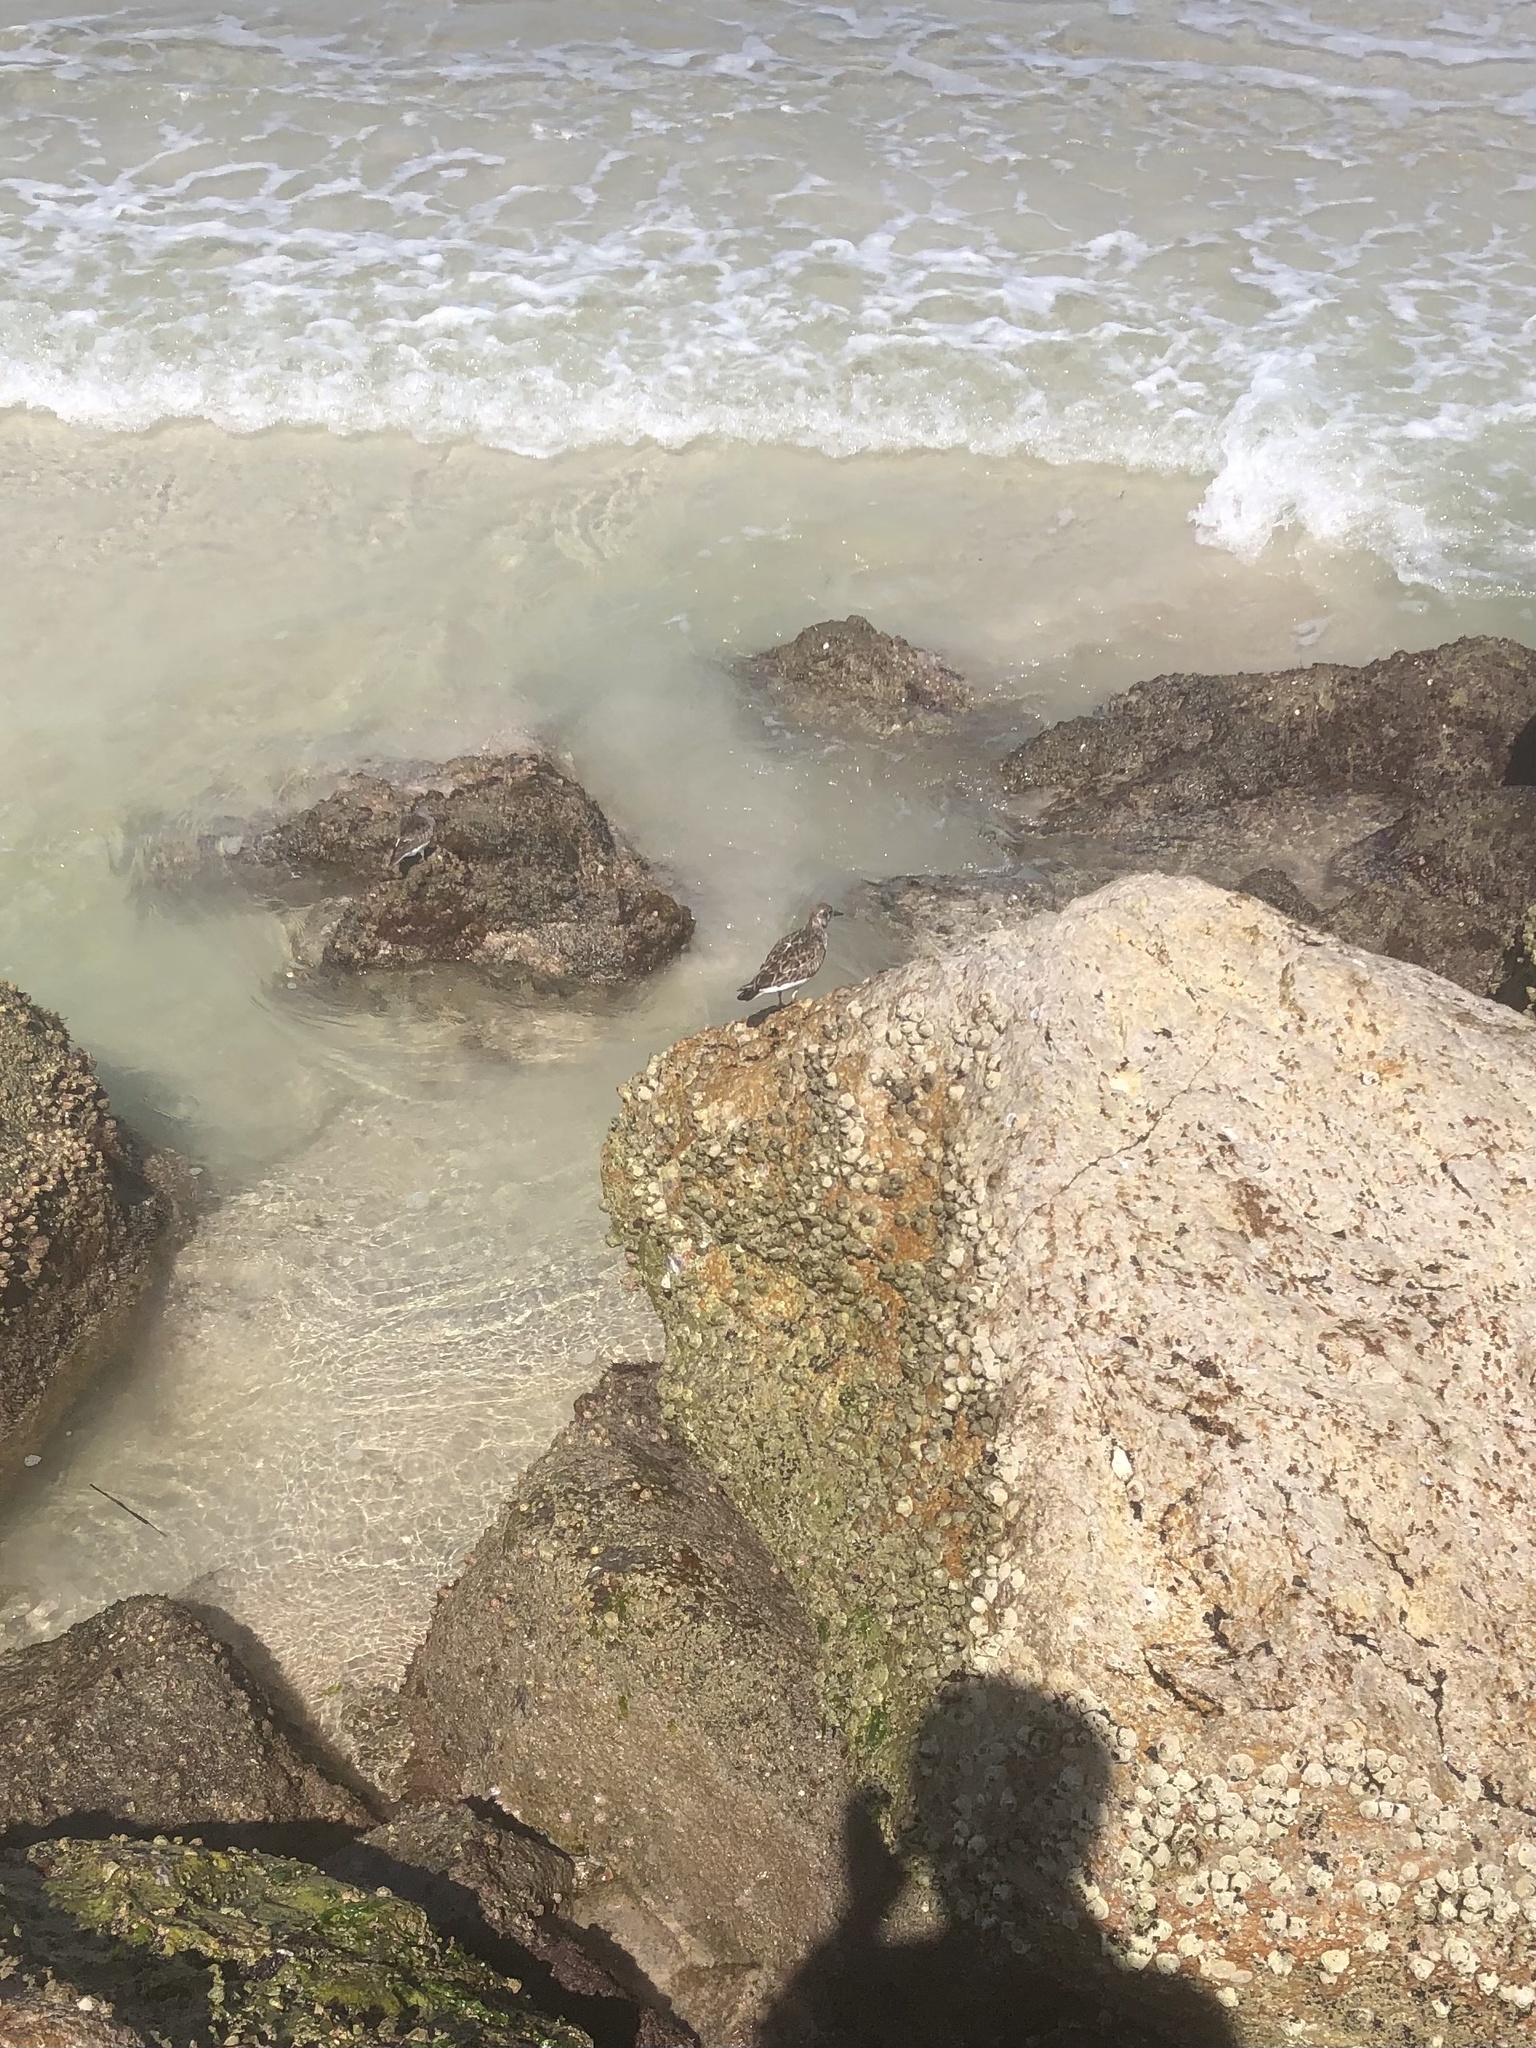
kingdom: Animalia
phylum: Chordata
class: Aves
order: Charadriiformes
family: Scolopacidae
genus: Arenaria
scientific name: Arenaria interpres
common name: Ruddy turnstone
